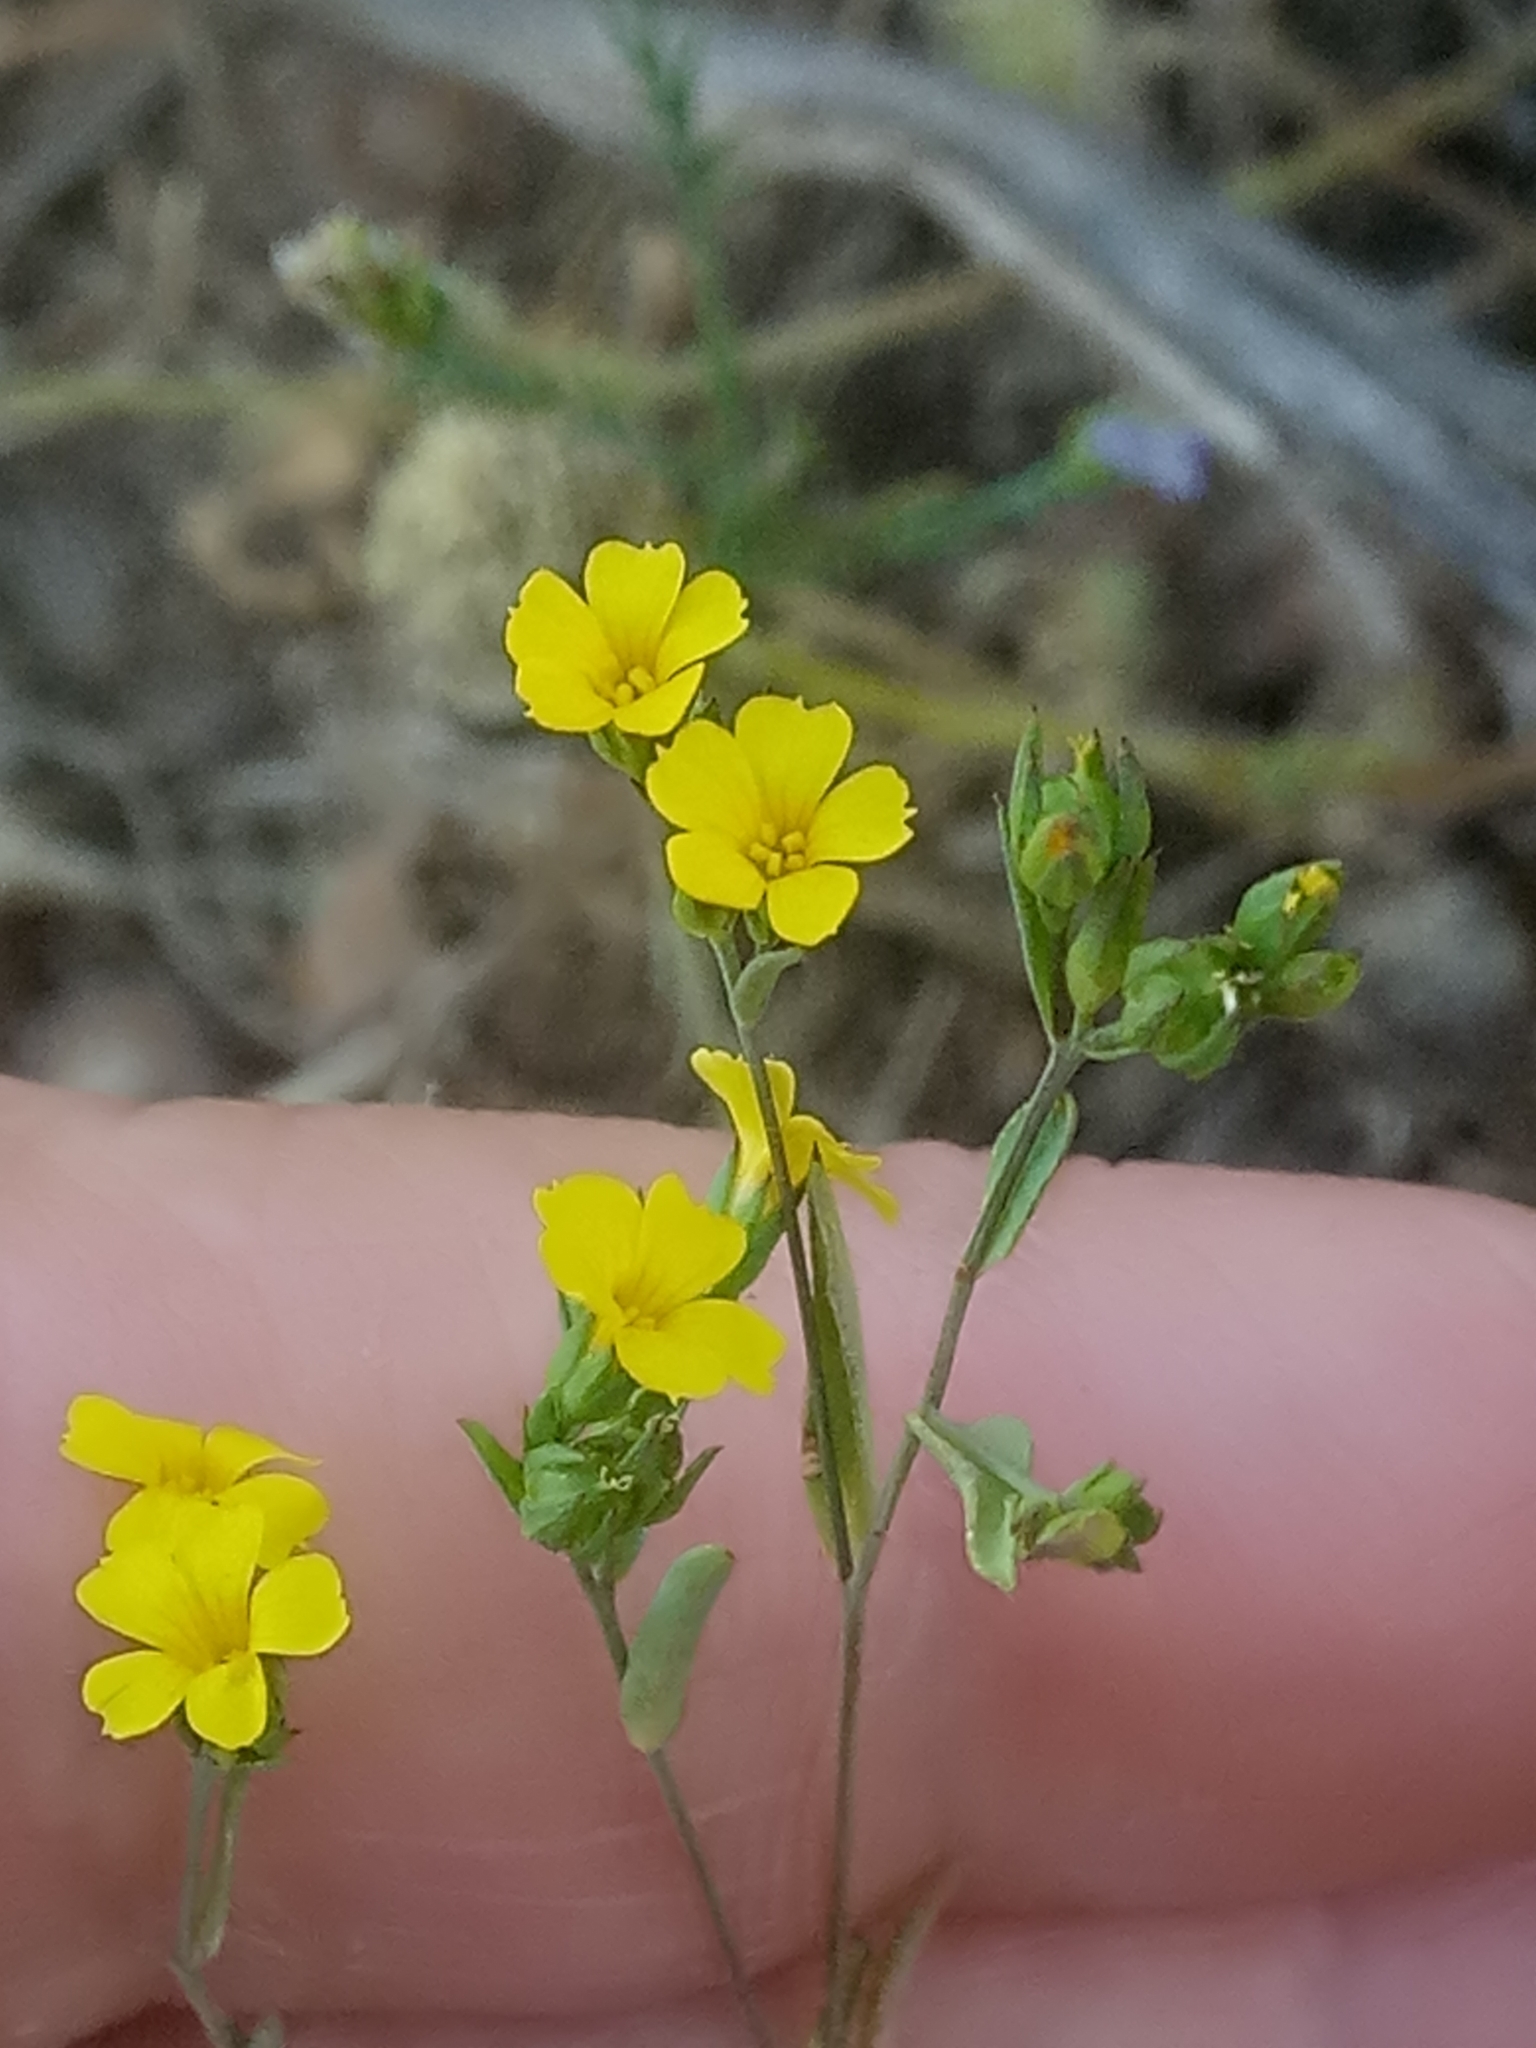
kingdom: Plantae
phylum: Tracheophyta
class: Magnoliopsida
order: Malpighiales
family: Linaceae
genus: Linum
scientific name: Linum trigynum
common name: French flax
